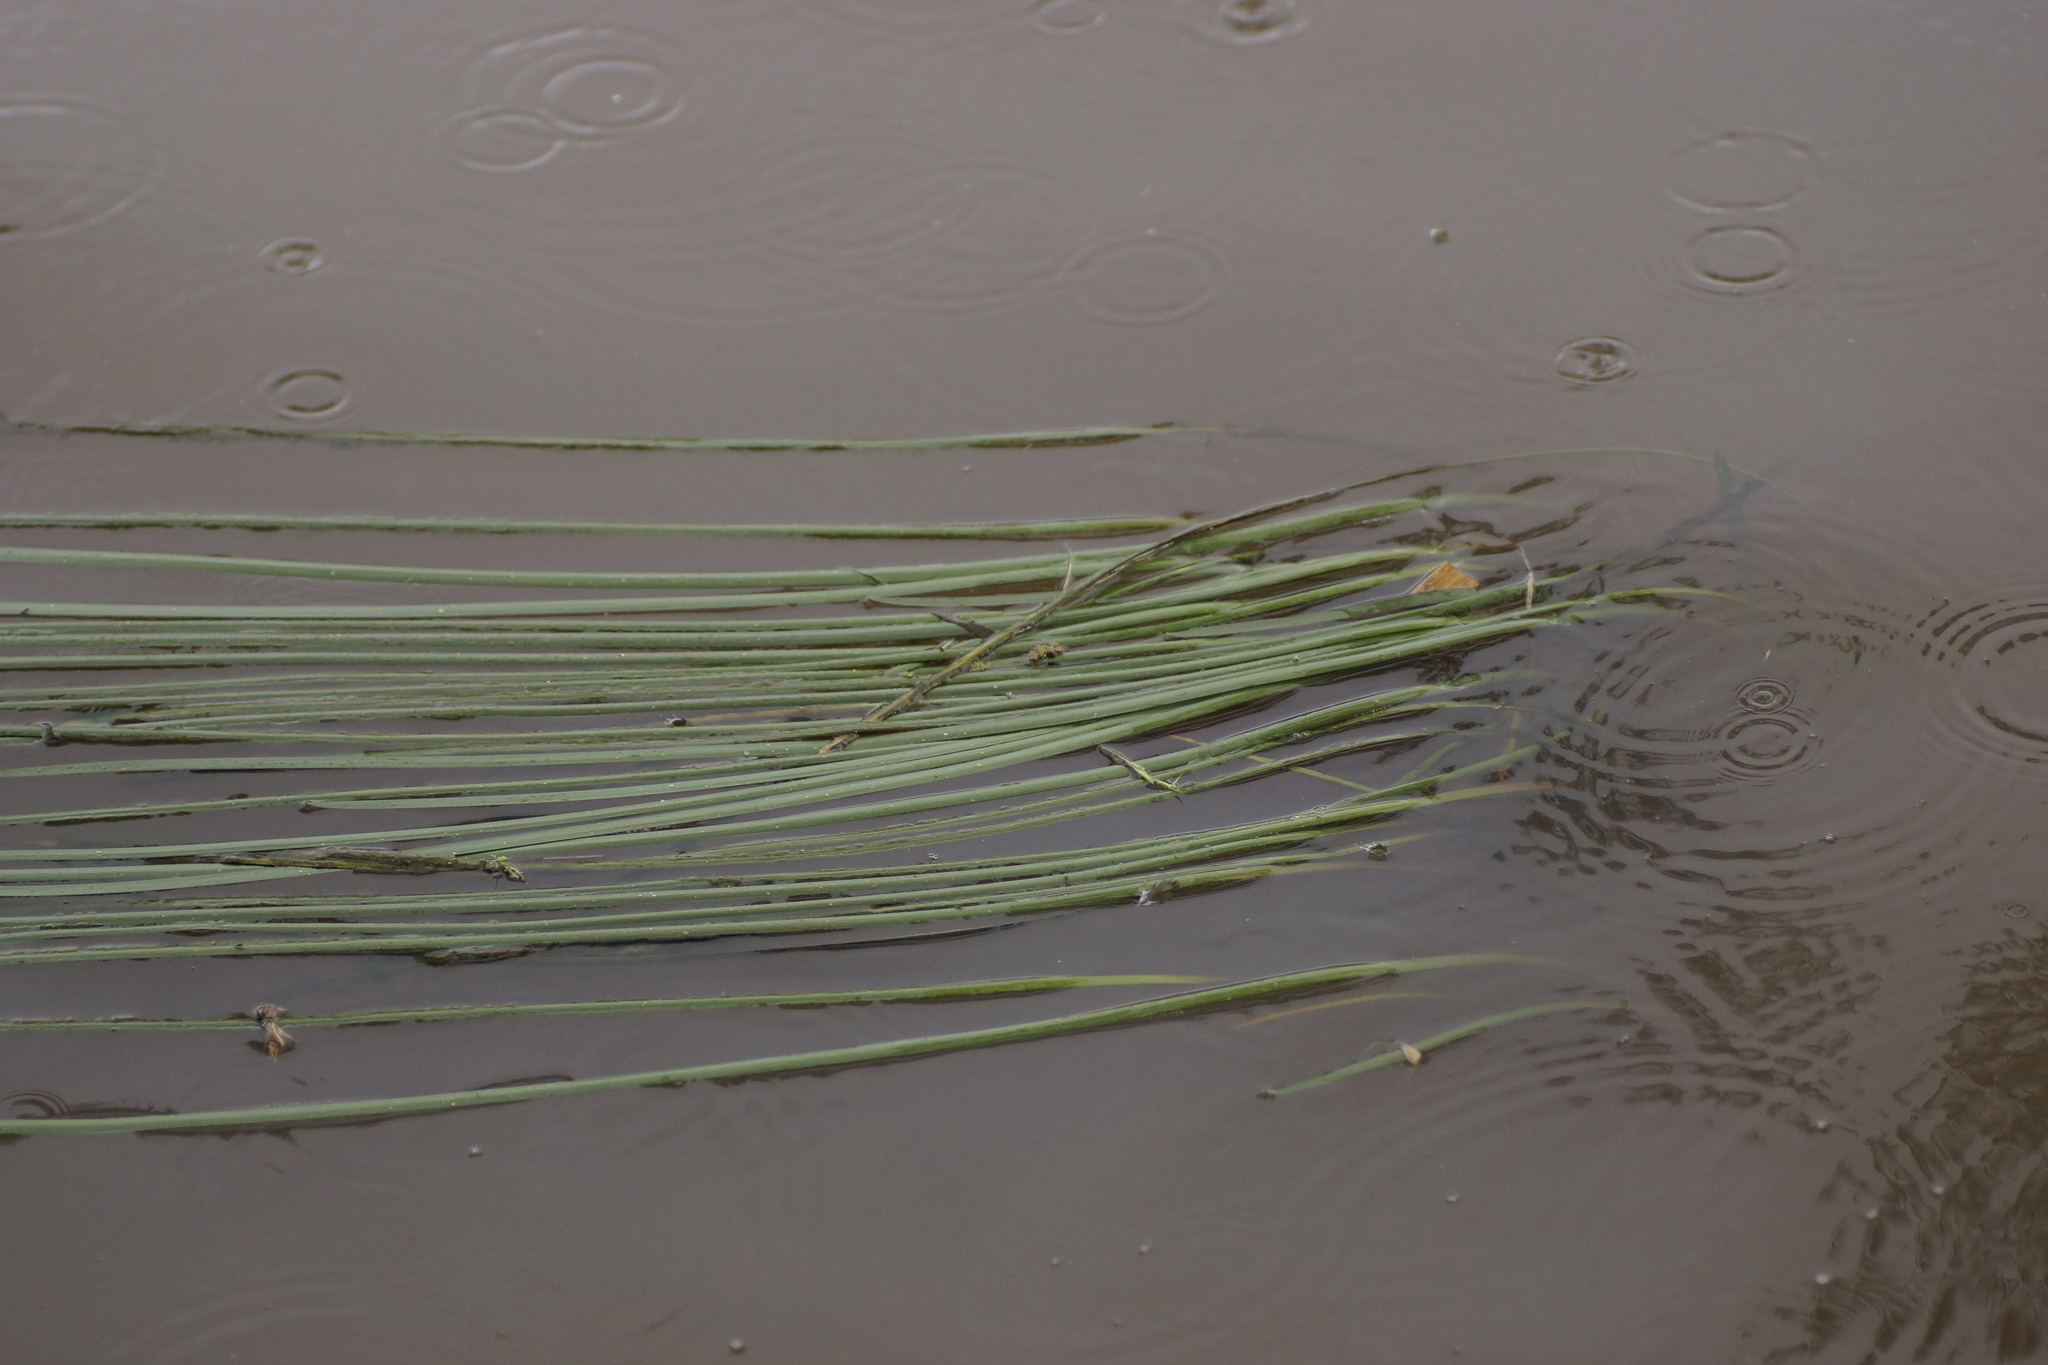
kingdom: Plantae
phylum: Tracheophyta
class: Liliopsida
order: Alismatales
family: Juncaginaceae
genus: Cycnogeton
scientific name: Cycnogeton procerum
